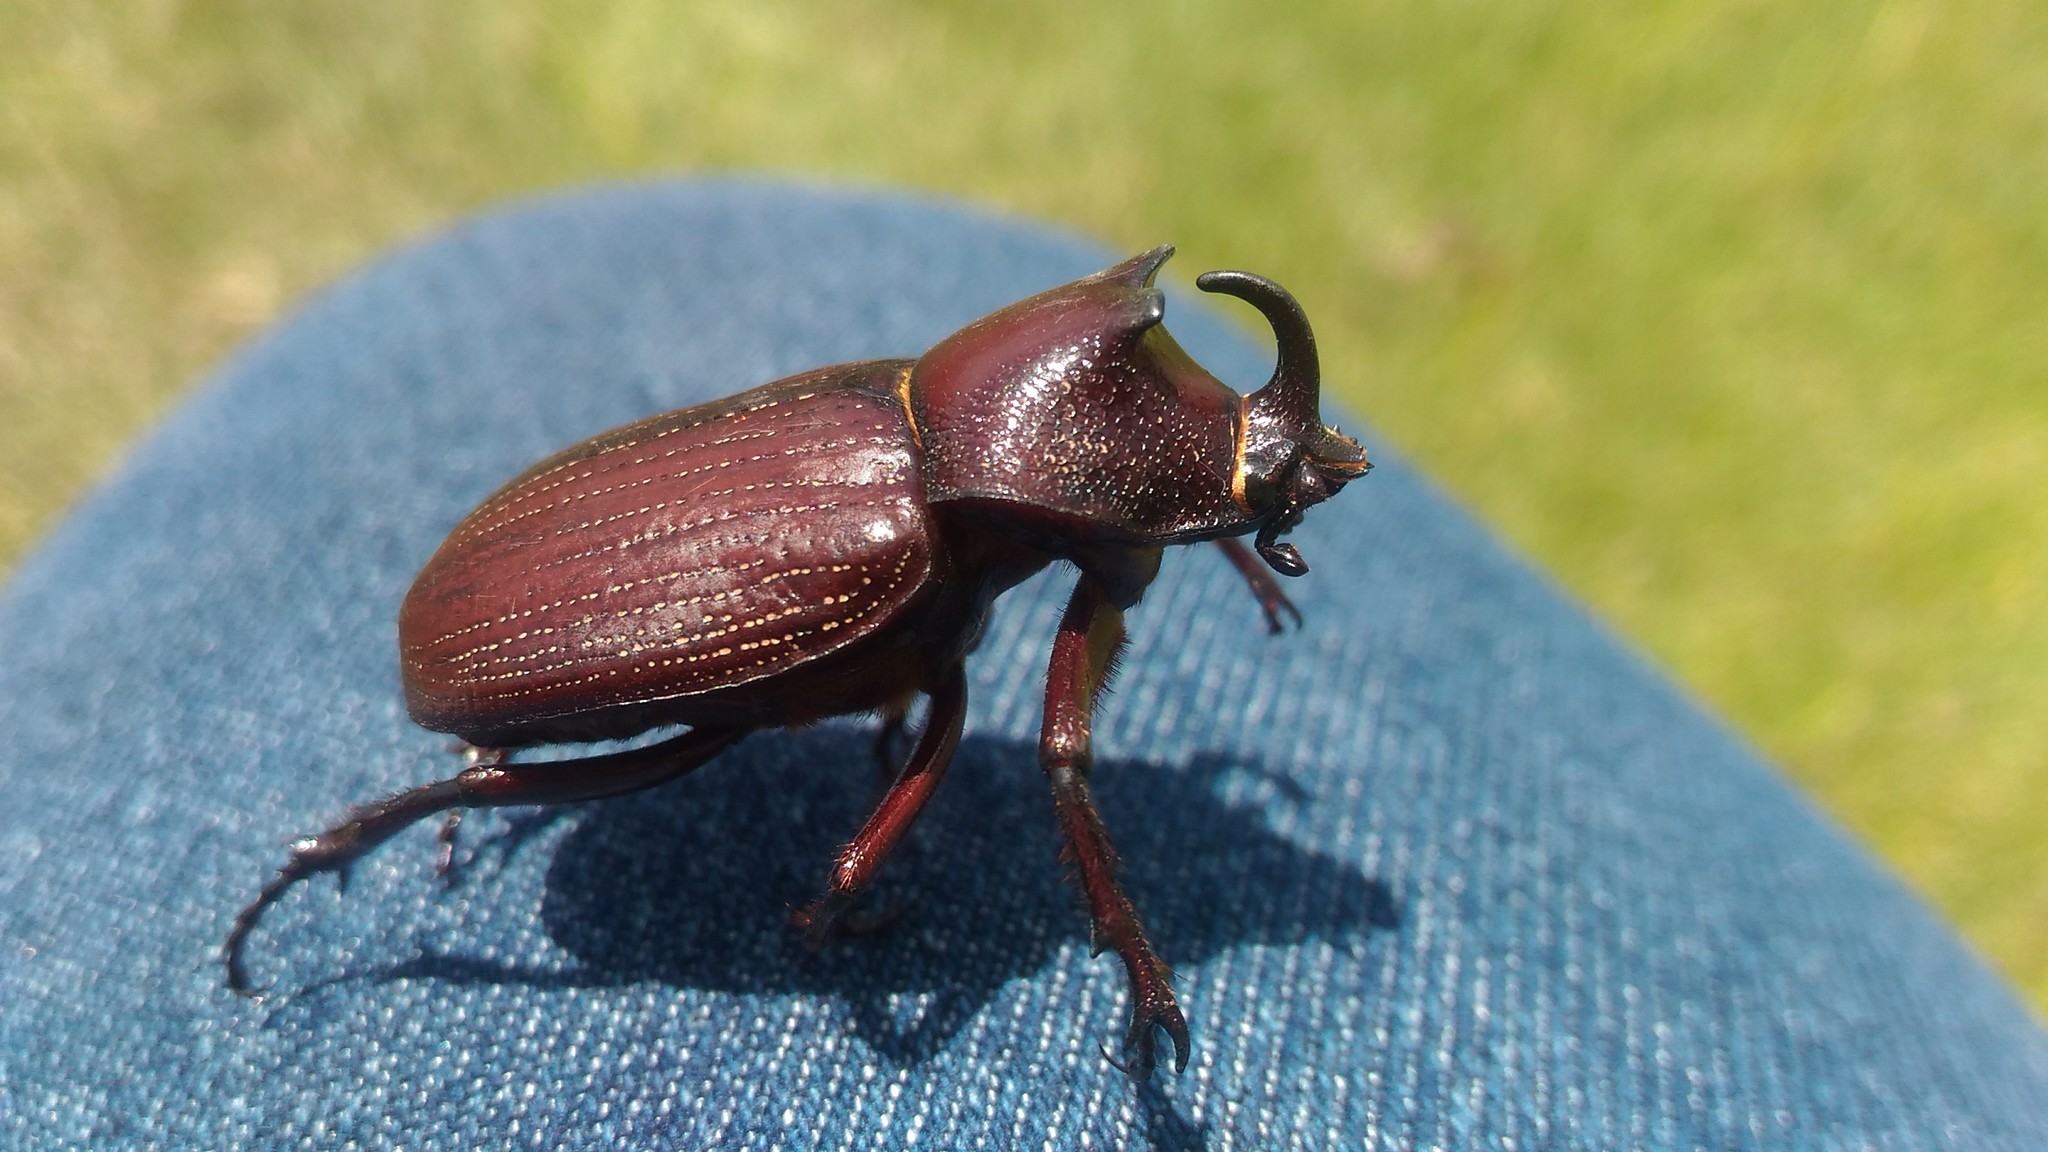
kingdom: Animalia
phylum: Arthropoda
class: Insecta
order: Coleoptera
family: Scarabaeidae
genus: Coelosis
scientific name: Coelosis biloba
